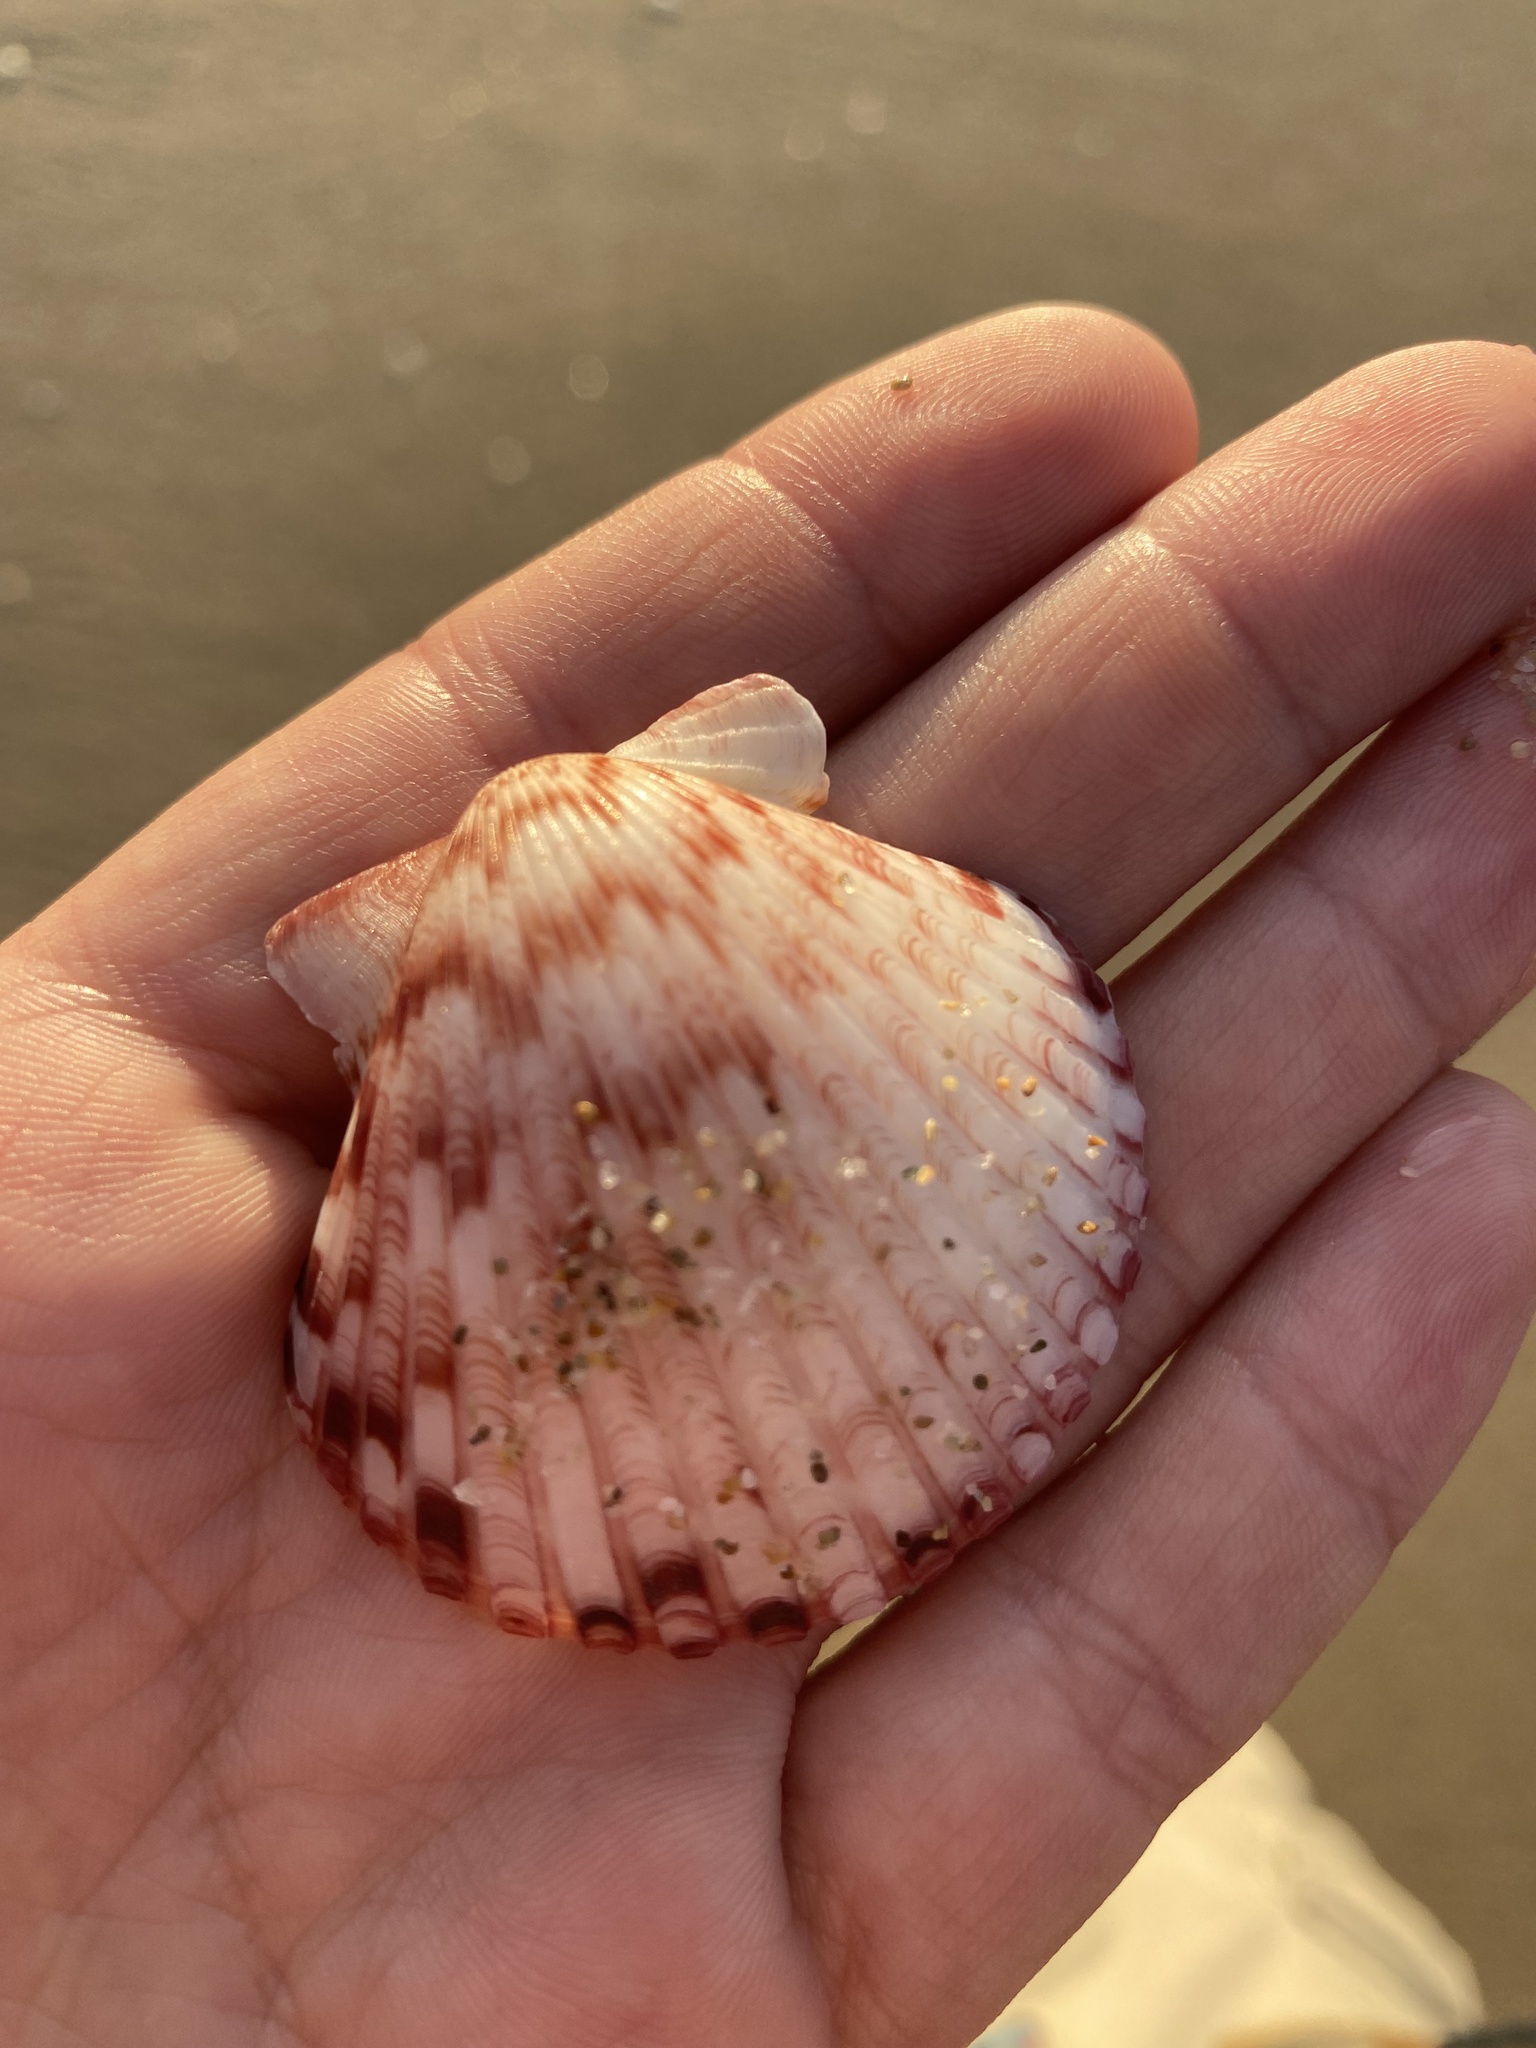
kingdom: Animalia
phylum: Mollusca
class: Bivalvia
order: Pectinida
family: Pectinidae
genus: Argopecten
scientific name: Argopecten ventricosus
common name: Catarina scallop
